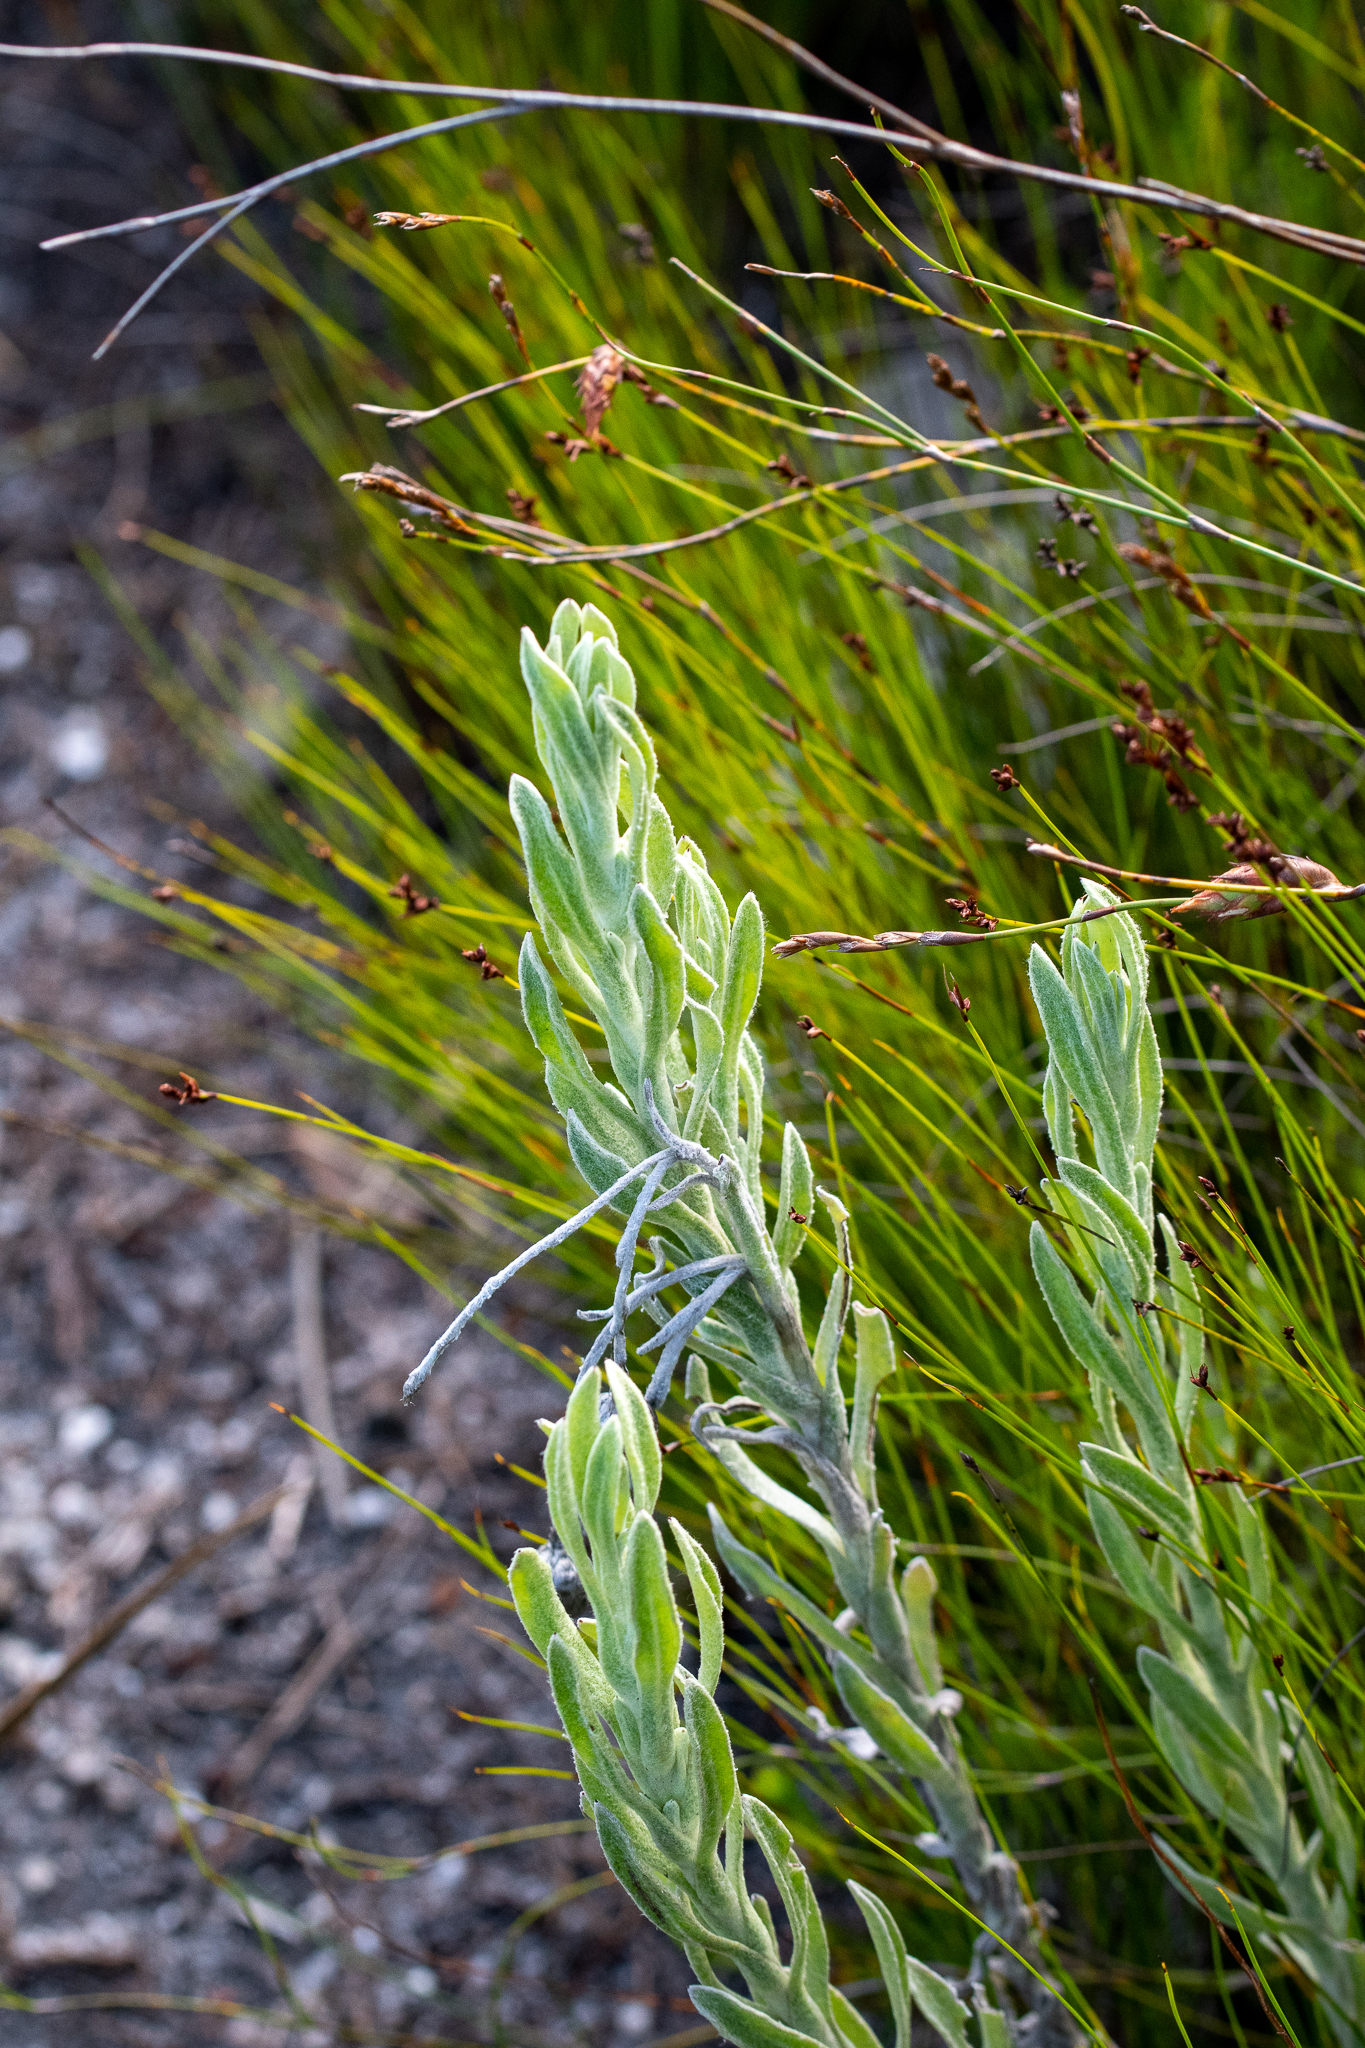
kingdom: Plantae
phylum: Tracheophyta
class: Magnoliopsida
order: Asterales
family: Asteraceae
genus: Syncarpha
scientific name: Syncarpha vestita
